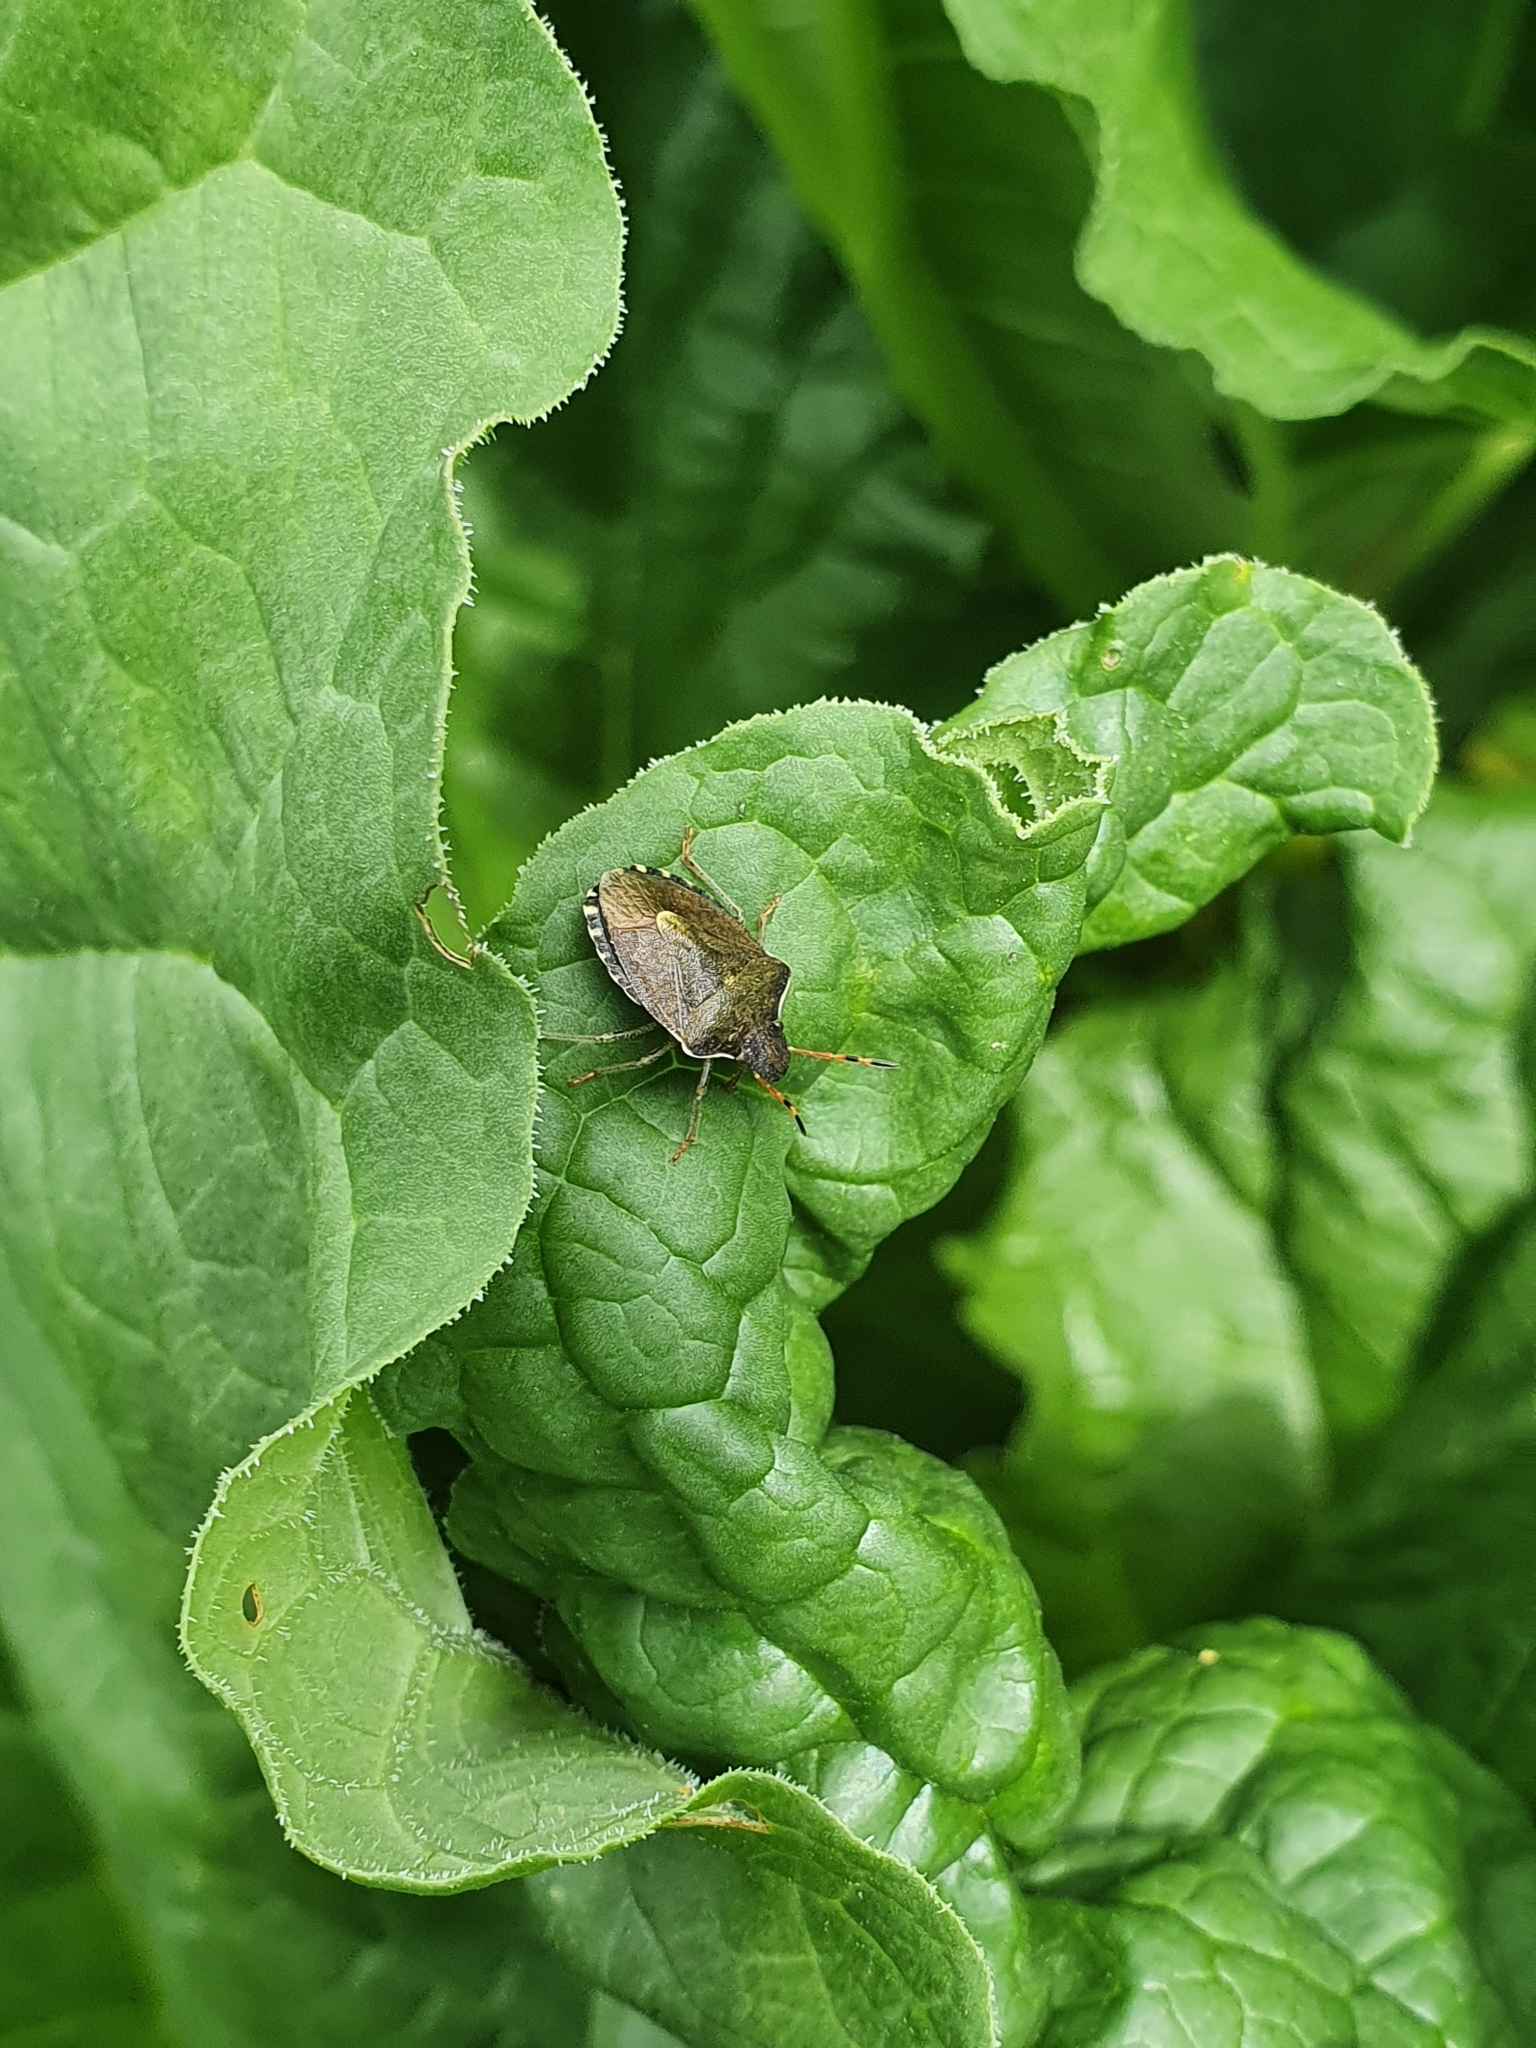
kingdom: Animalia
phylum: Arthropoda
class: Insecta
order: Hemiptera
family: Pentatomidae
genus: Holcostethus
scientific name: Holcostethus strictus
